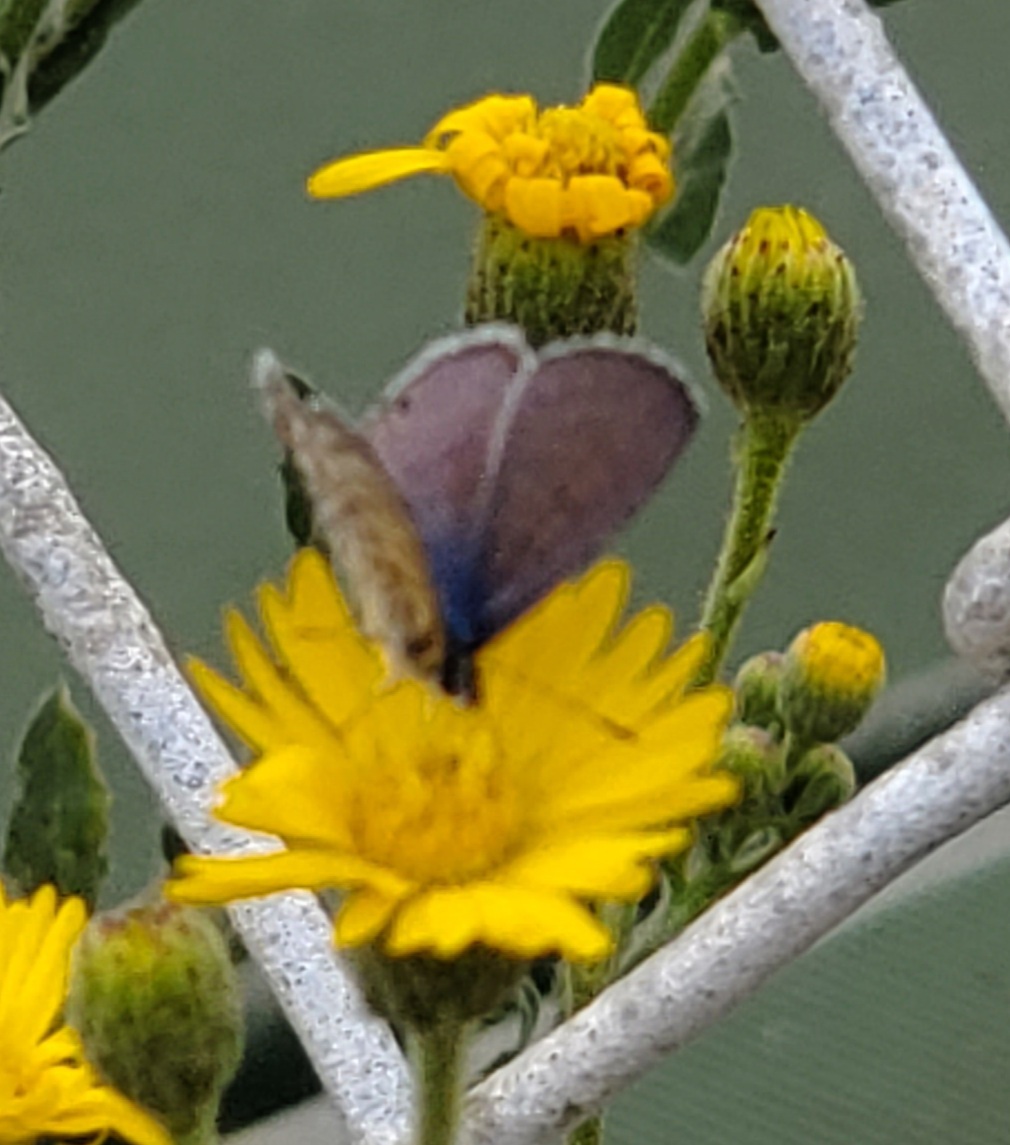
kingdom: Animalia
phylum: Arthropoda
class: Insecta
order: Lepidoptera
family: Lycaenidae
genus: Leptotes
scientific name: Leptotes marina
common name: Marine blue
